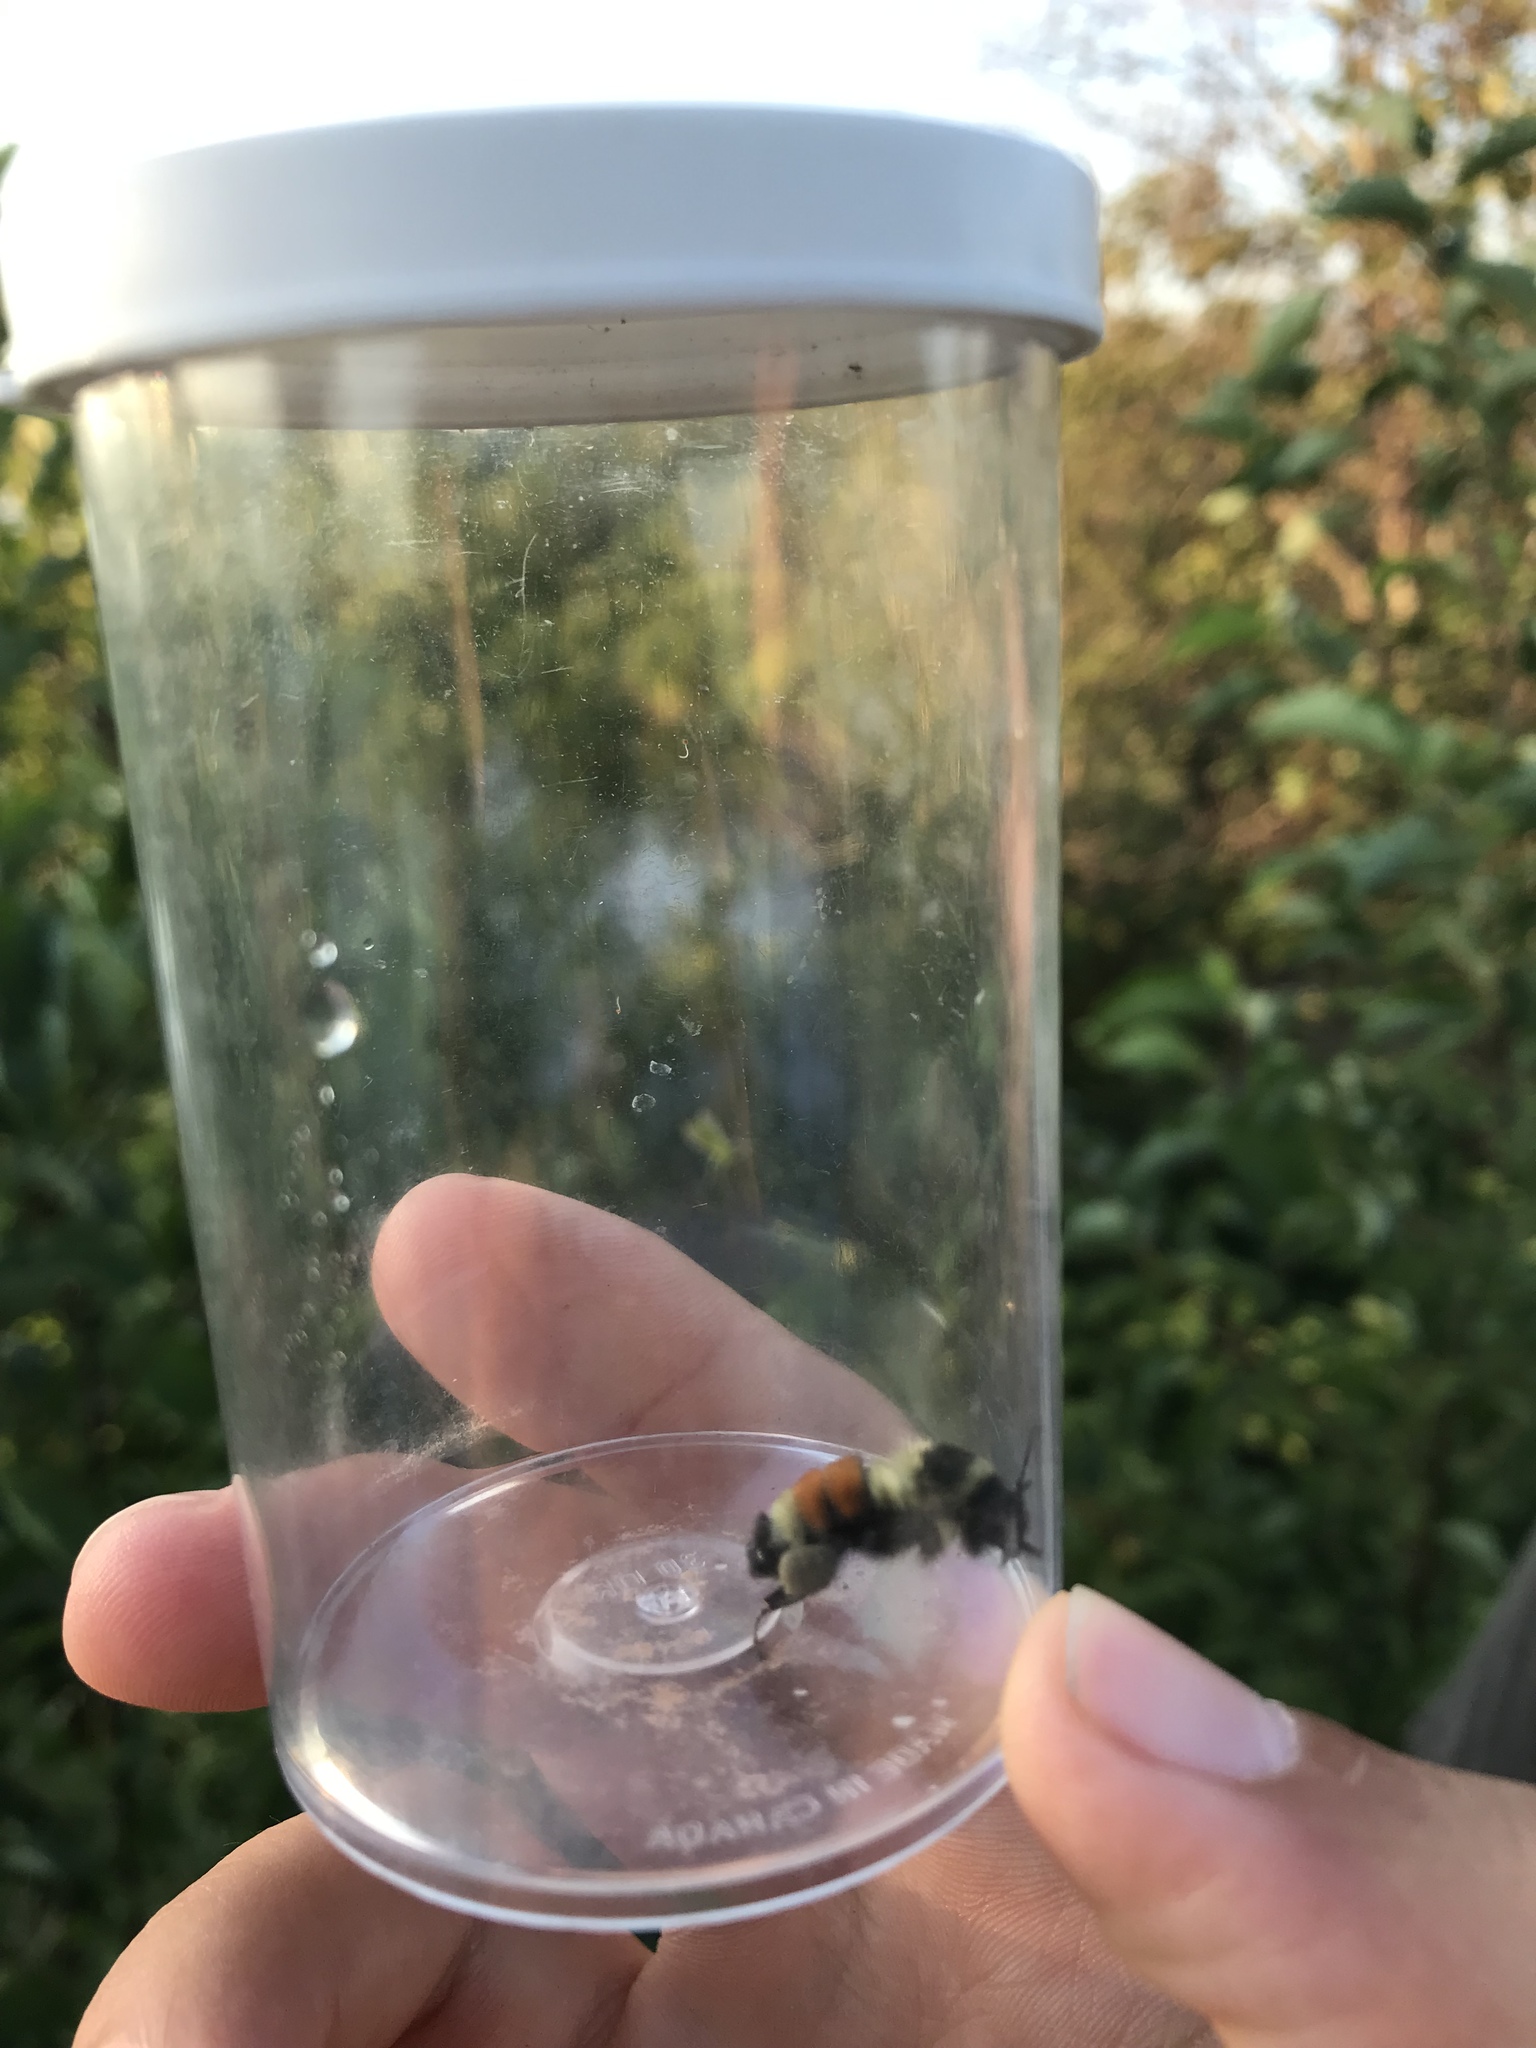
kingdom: Animalia
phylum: Arthropoda
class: Insecta
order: Hymenoptera
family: Apidae
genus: Bombus
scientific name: Bombus ternarius
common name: Tri-colored bumble bee
